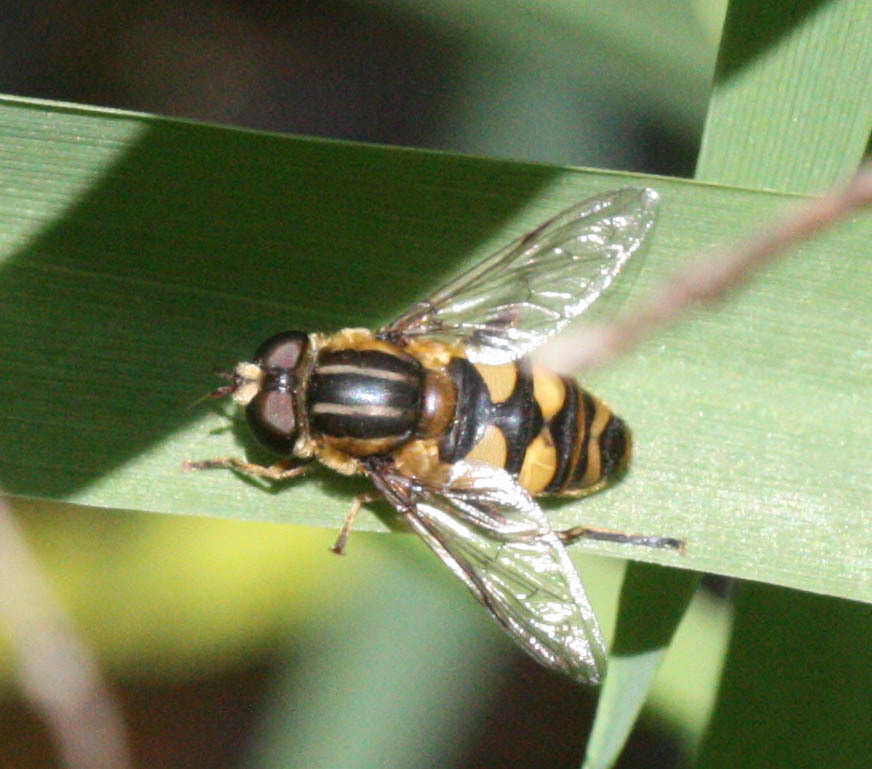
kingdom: Animalia
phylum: Arthropoda
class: Insecta
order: Diptera
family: Syrphidae
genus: Helophilus
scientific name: Helophilus fasciatus
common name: Narrow-headed marsh fly
